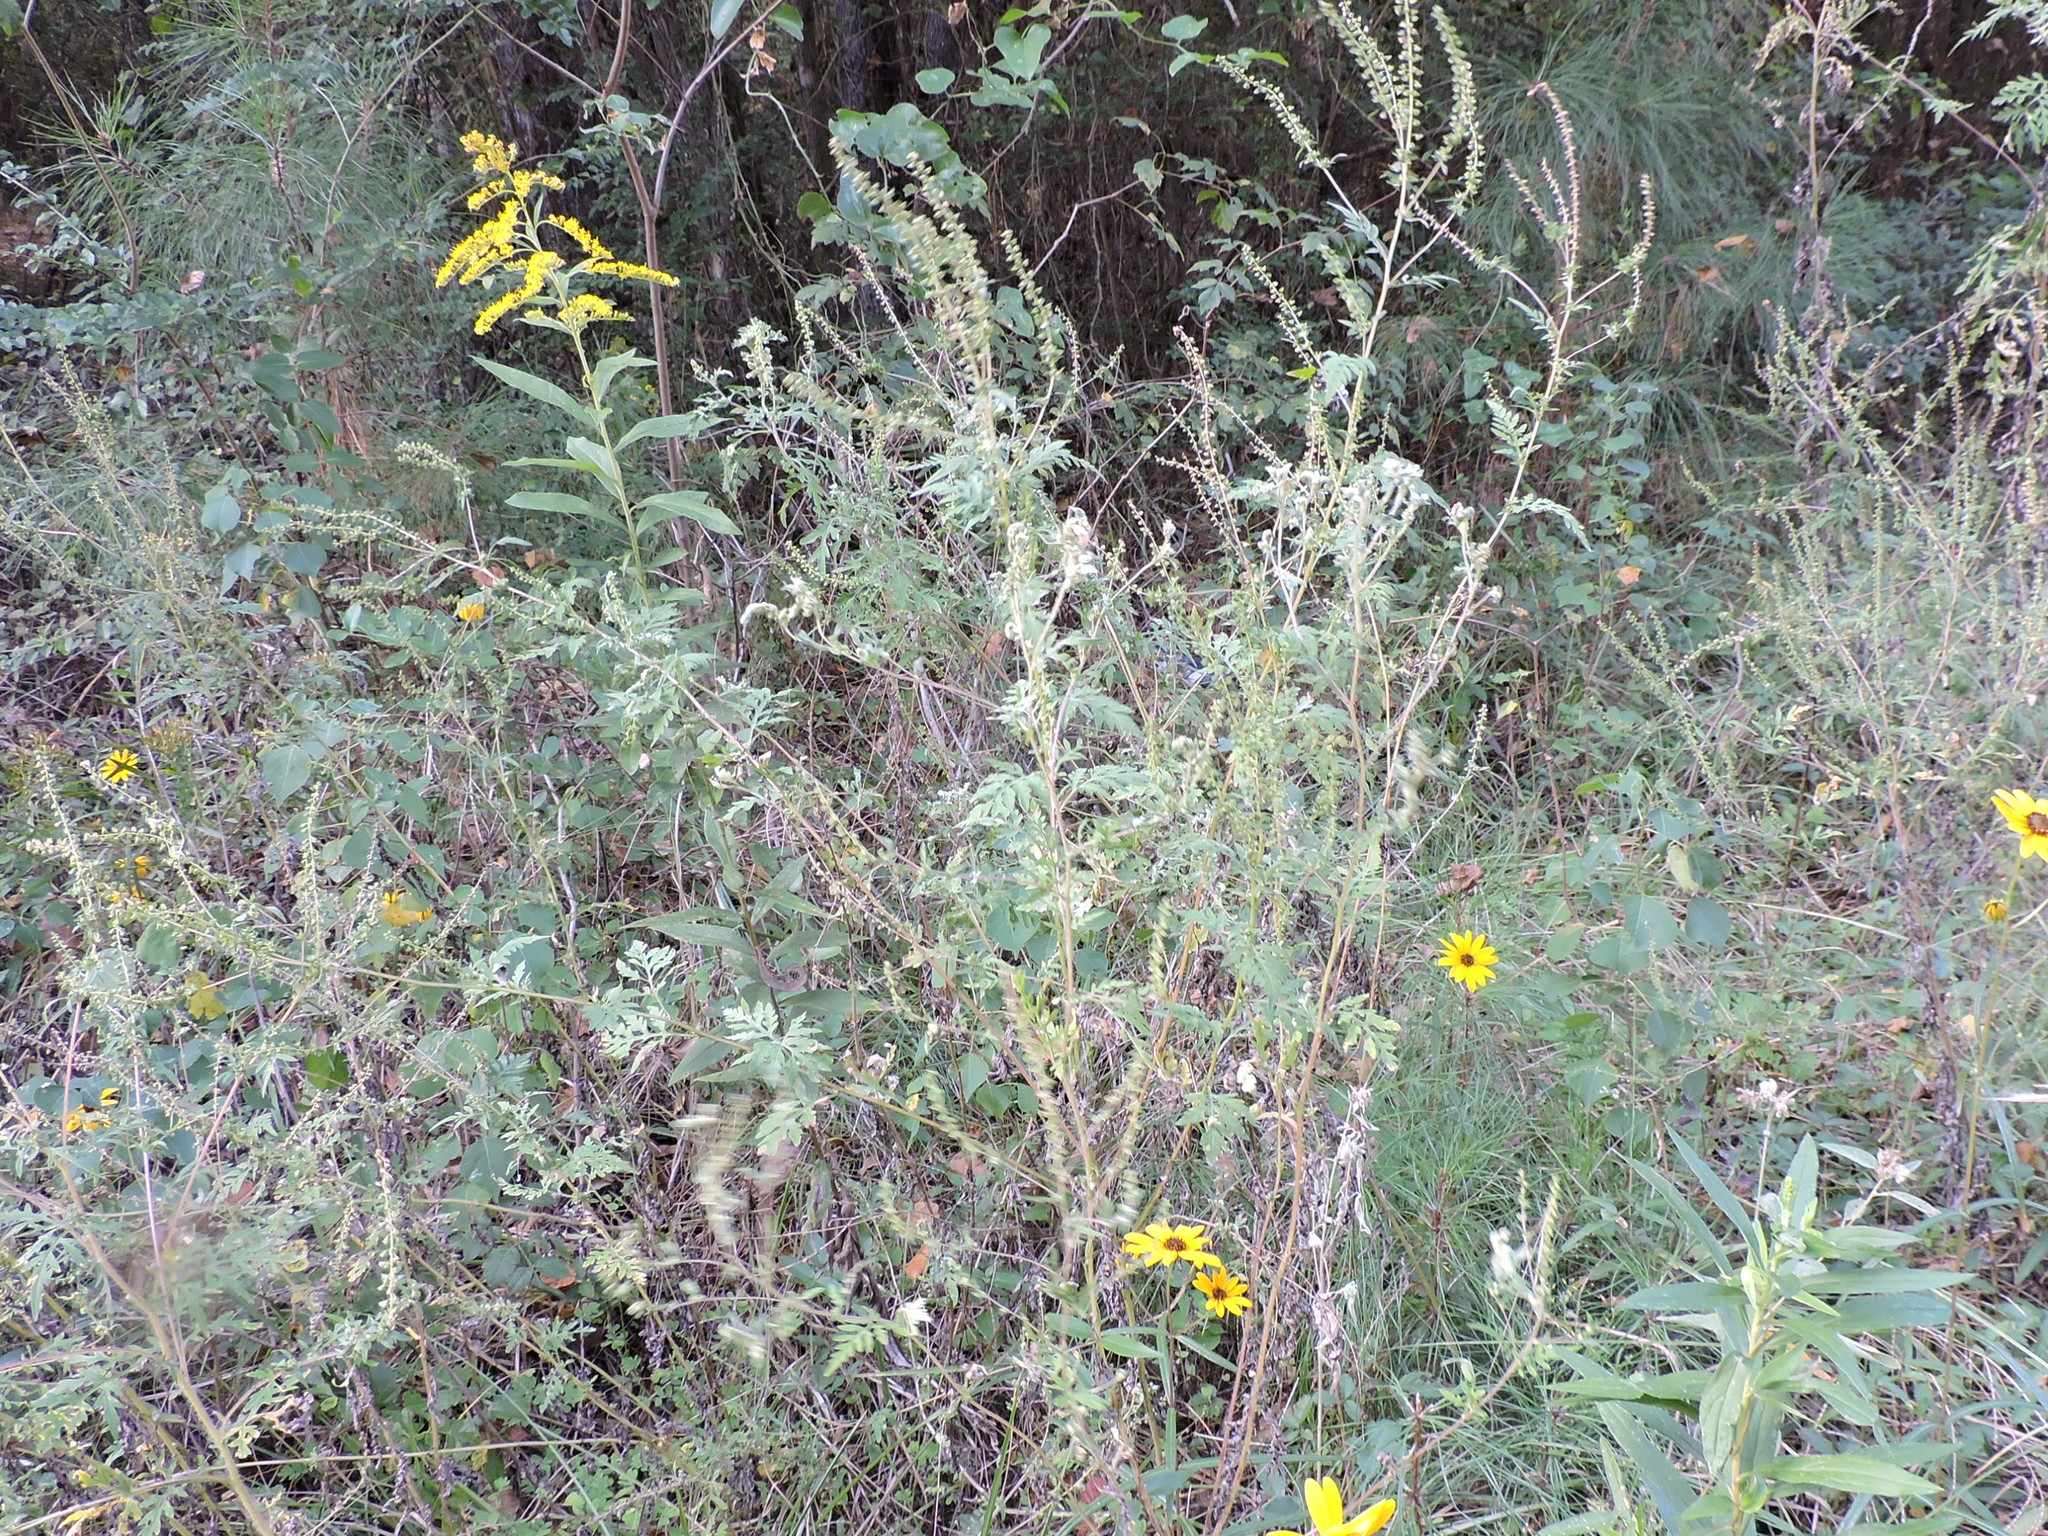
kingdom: Plantae
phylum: Tracheophyta
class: Magnoliopsida
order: Asterales
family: Asteraceae
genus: Ambrosia
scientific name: Ambrosia artemisiifolia
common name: Annual ragweed
